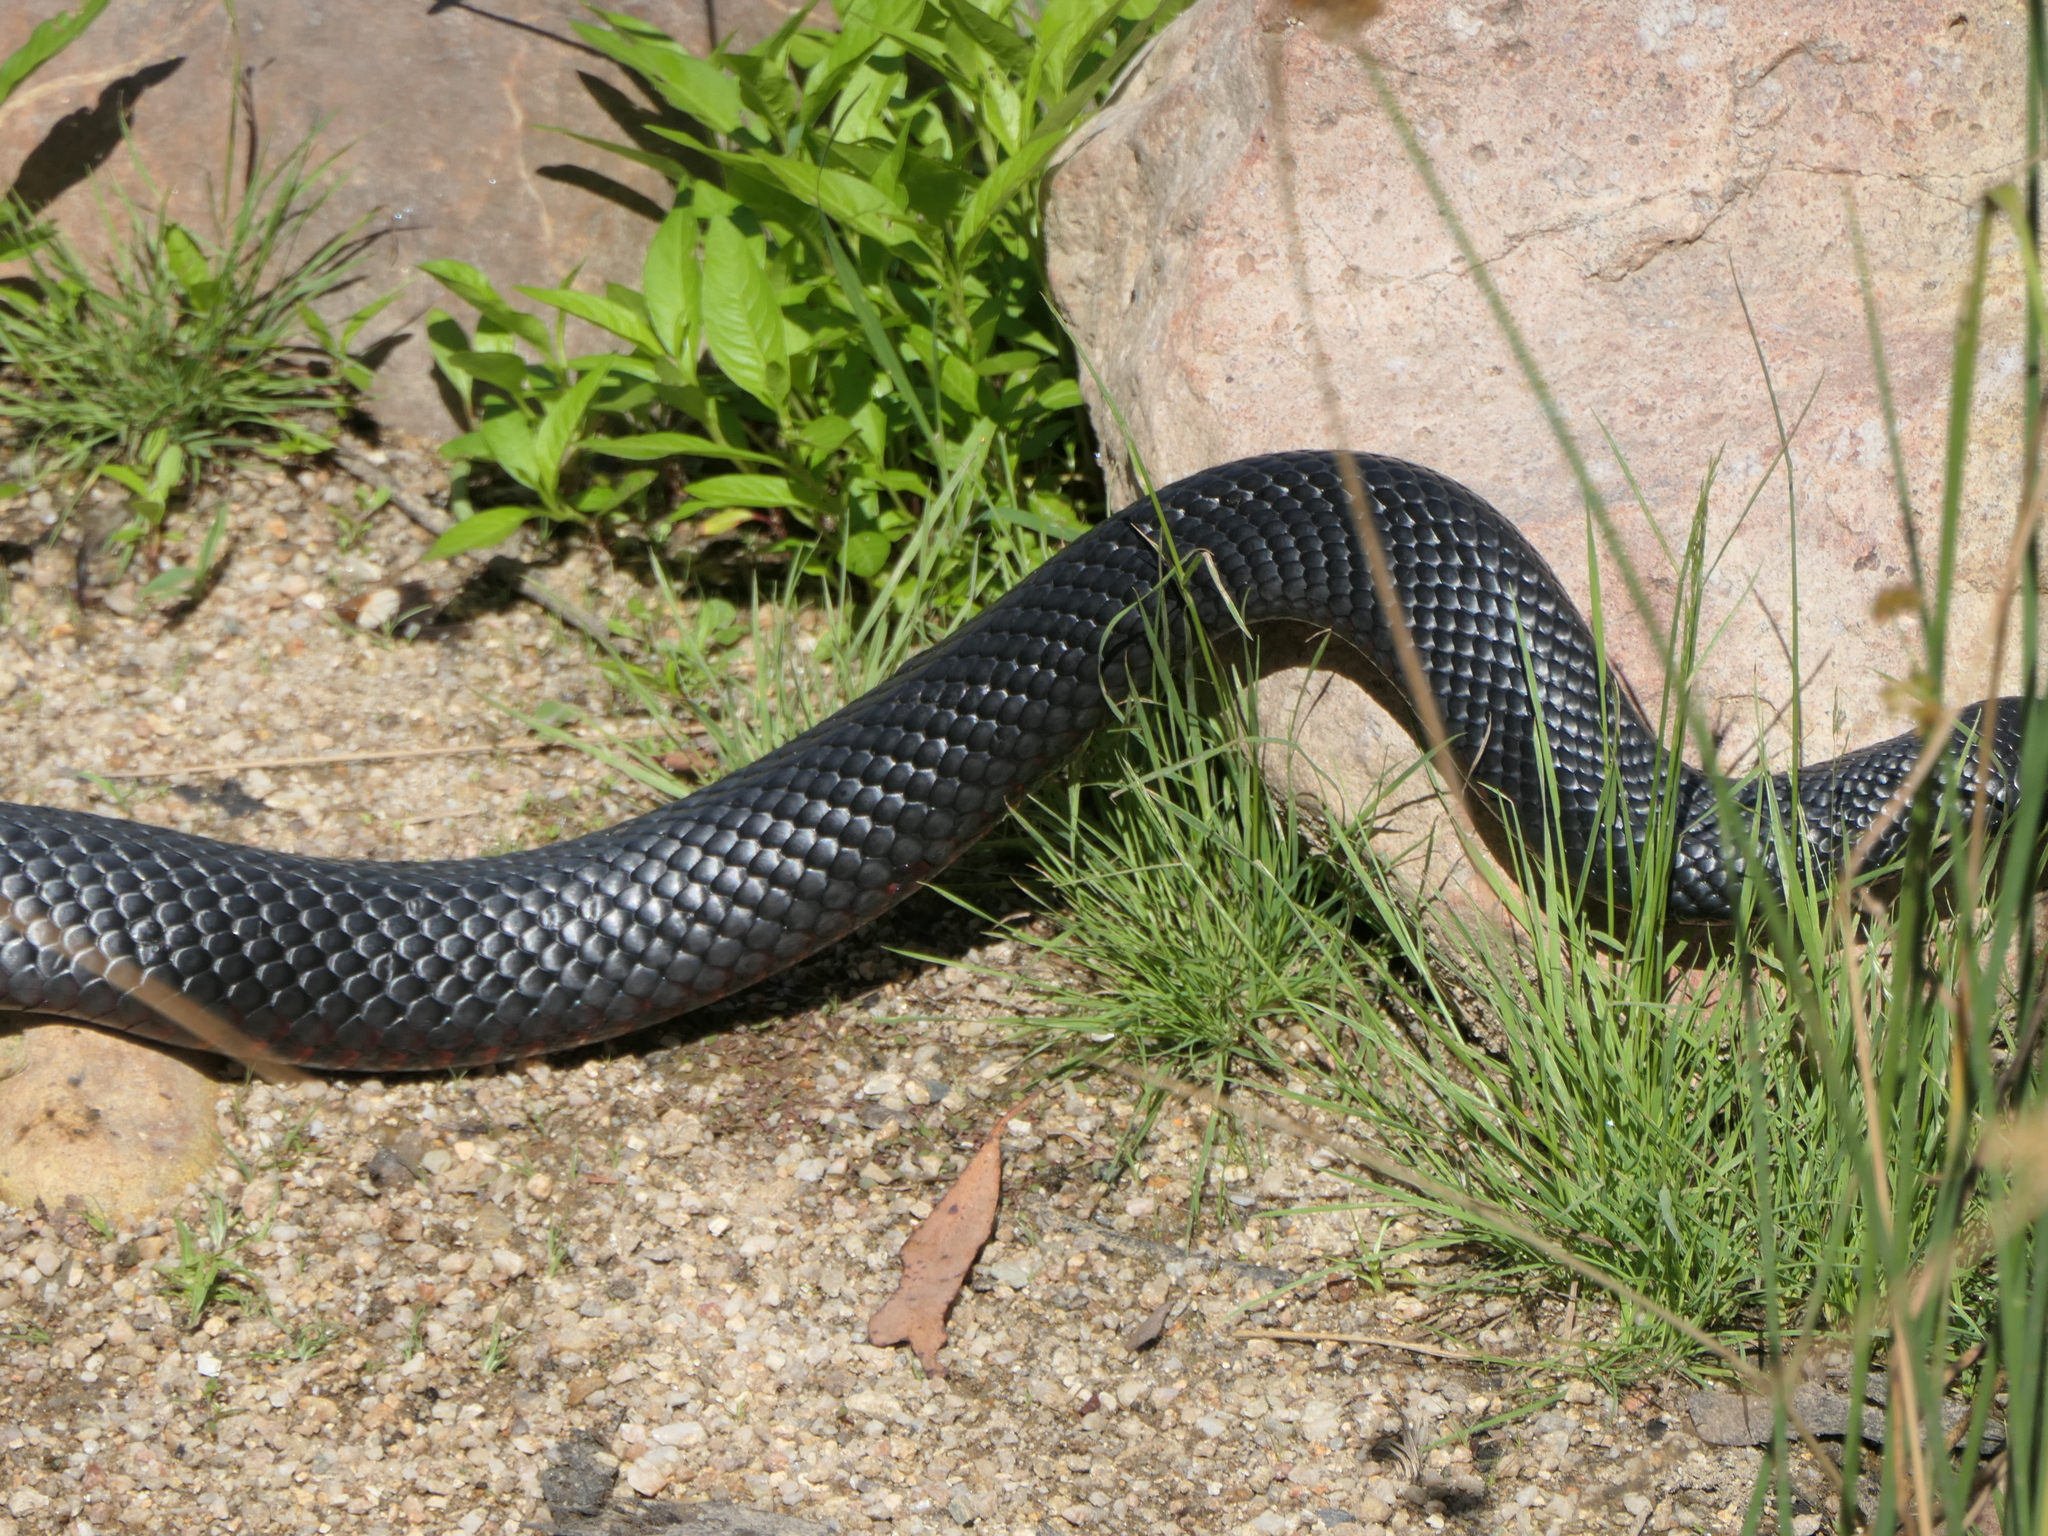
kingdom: Animalia
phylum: Chordata
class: Squamata
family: Elapidae
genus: Pseudechis
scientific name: Pseudechis porphyriacus
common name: Australian black snake
